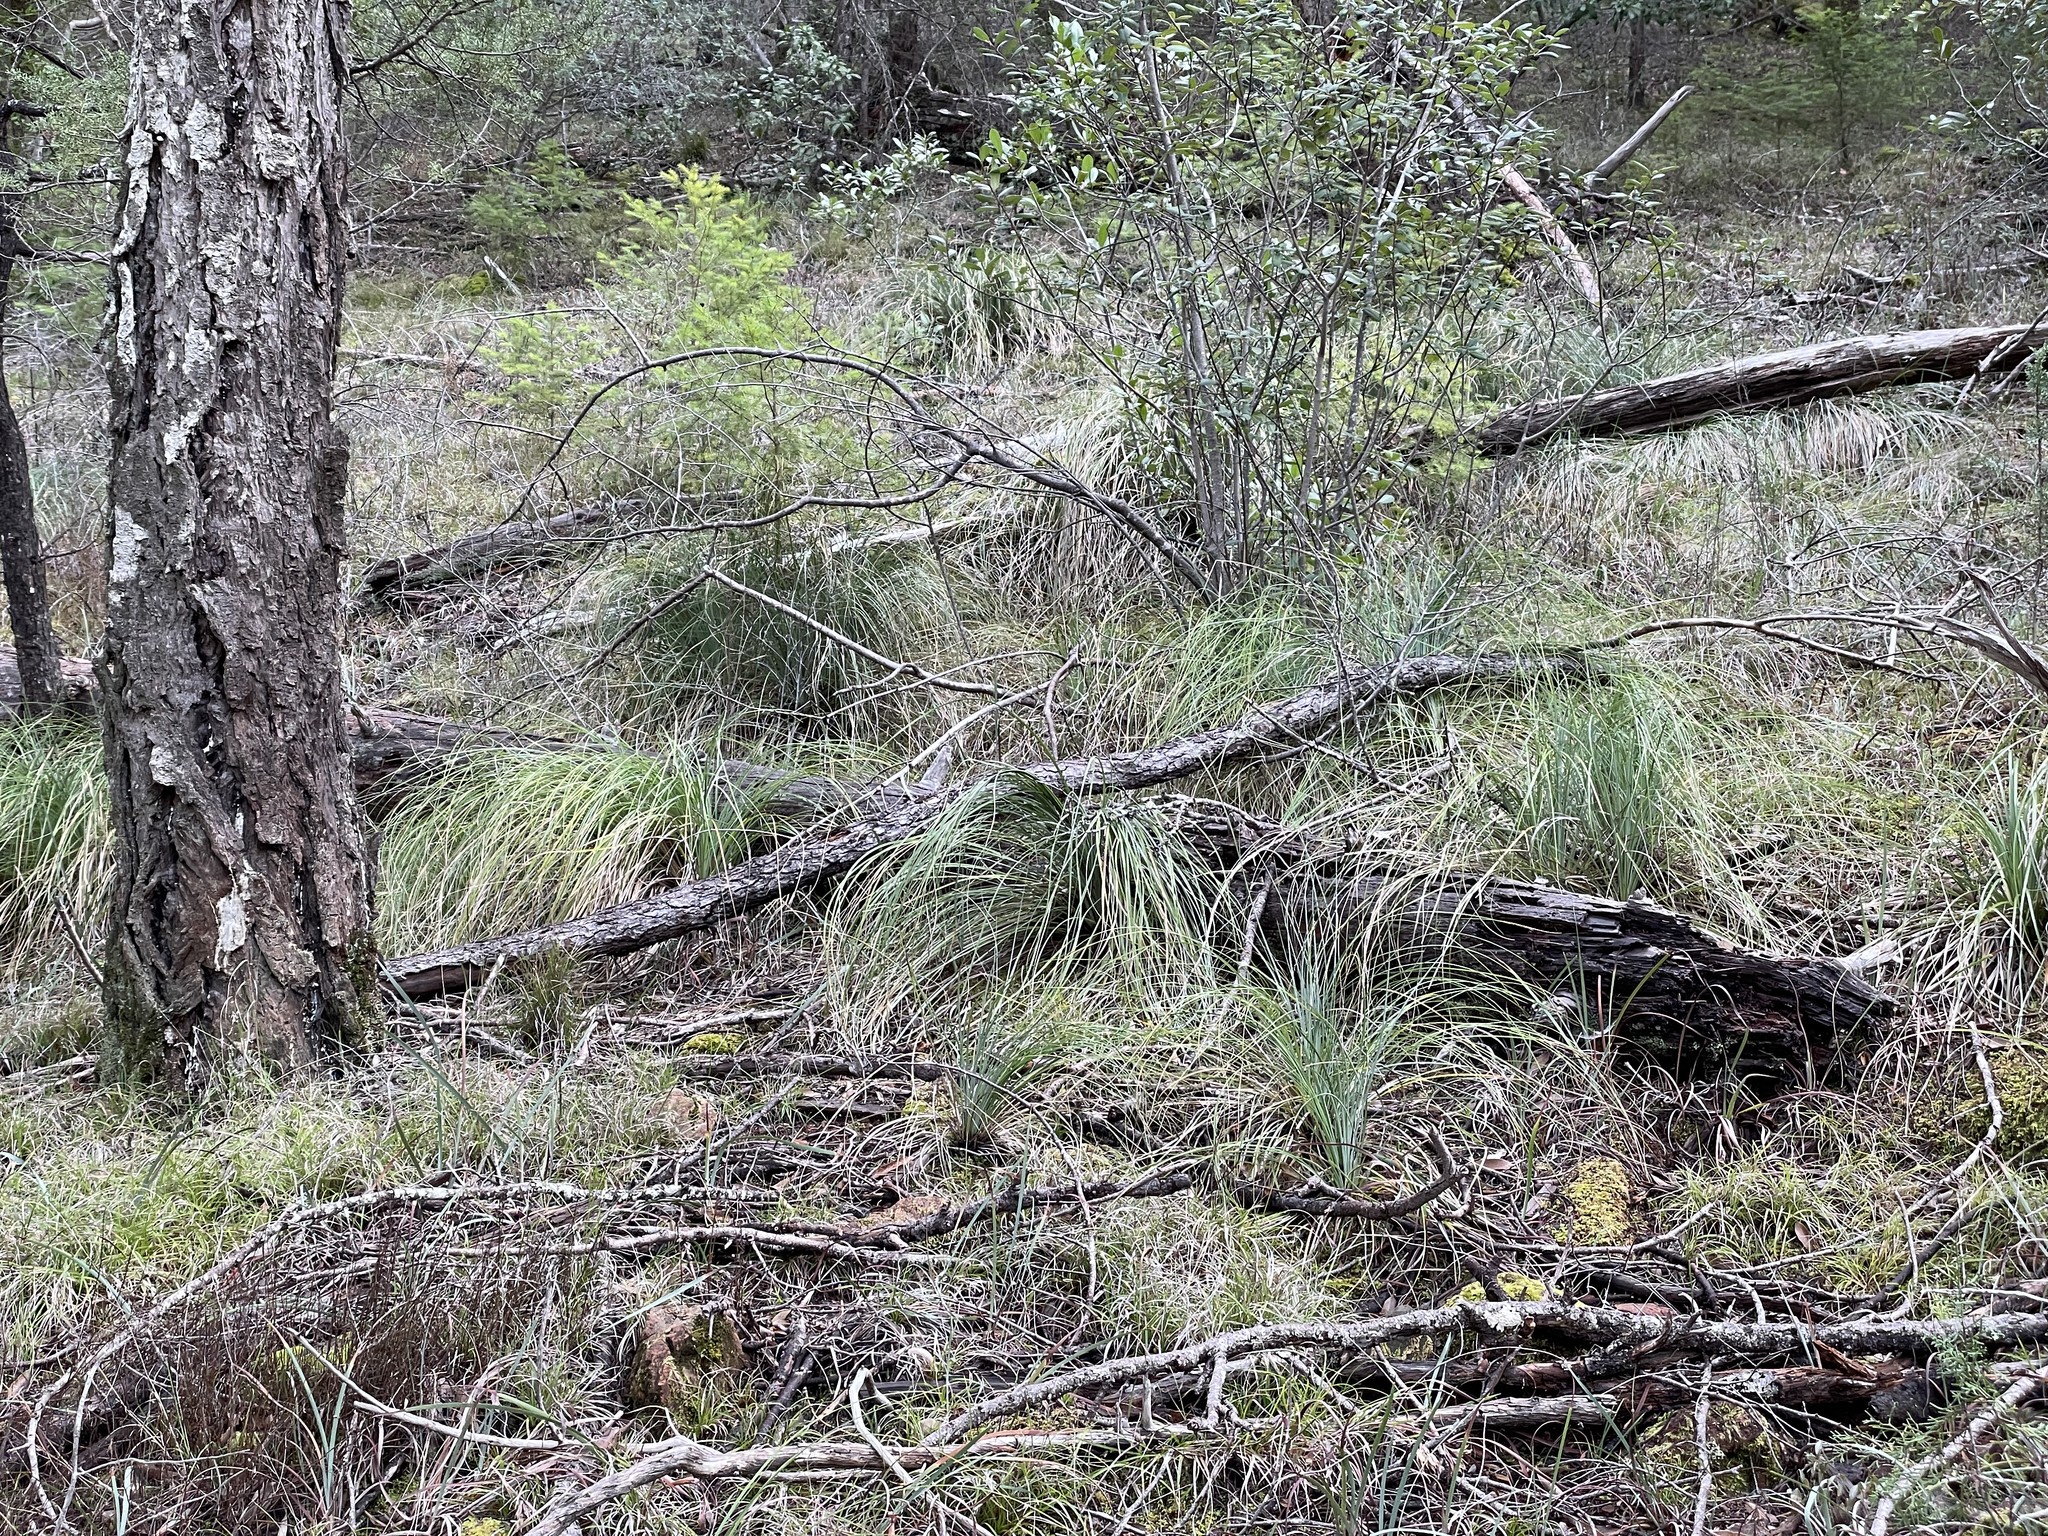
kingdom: Plantae
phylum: Tracheophyta
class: Liliopsida
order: Liliales
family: Melanthiaceae
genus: Xerophyllum
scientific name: Xerophyllum tenax
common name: Bear-grass
